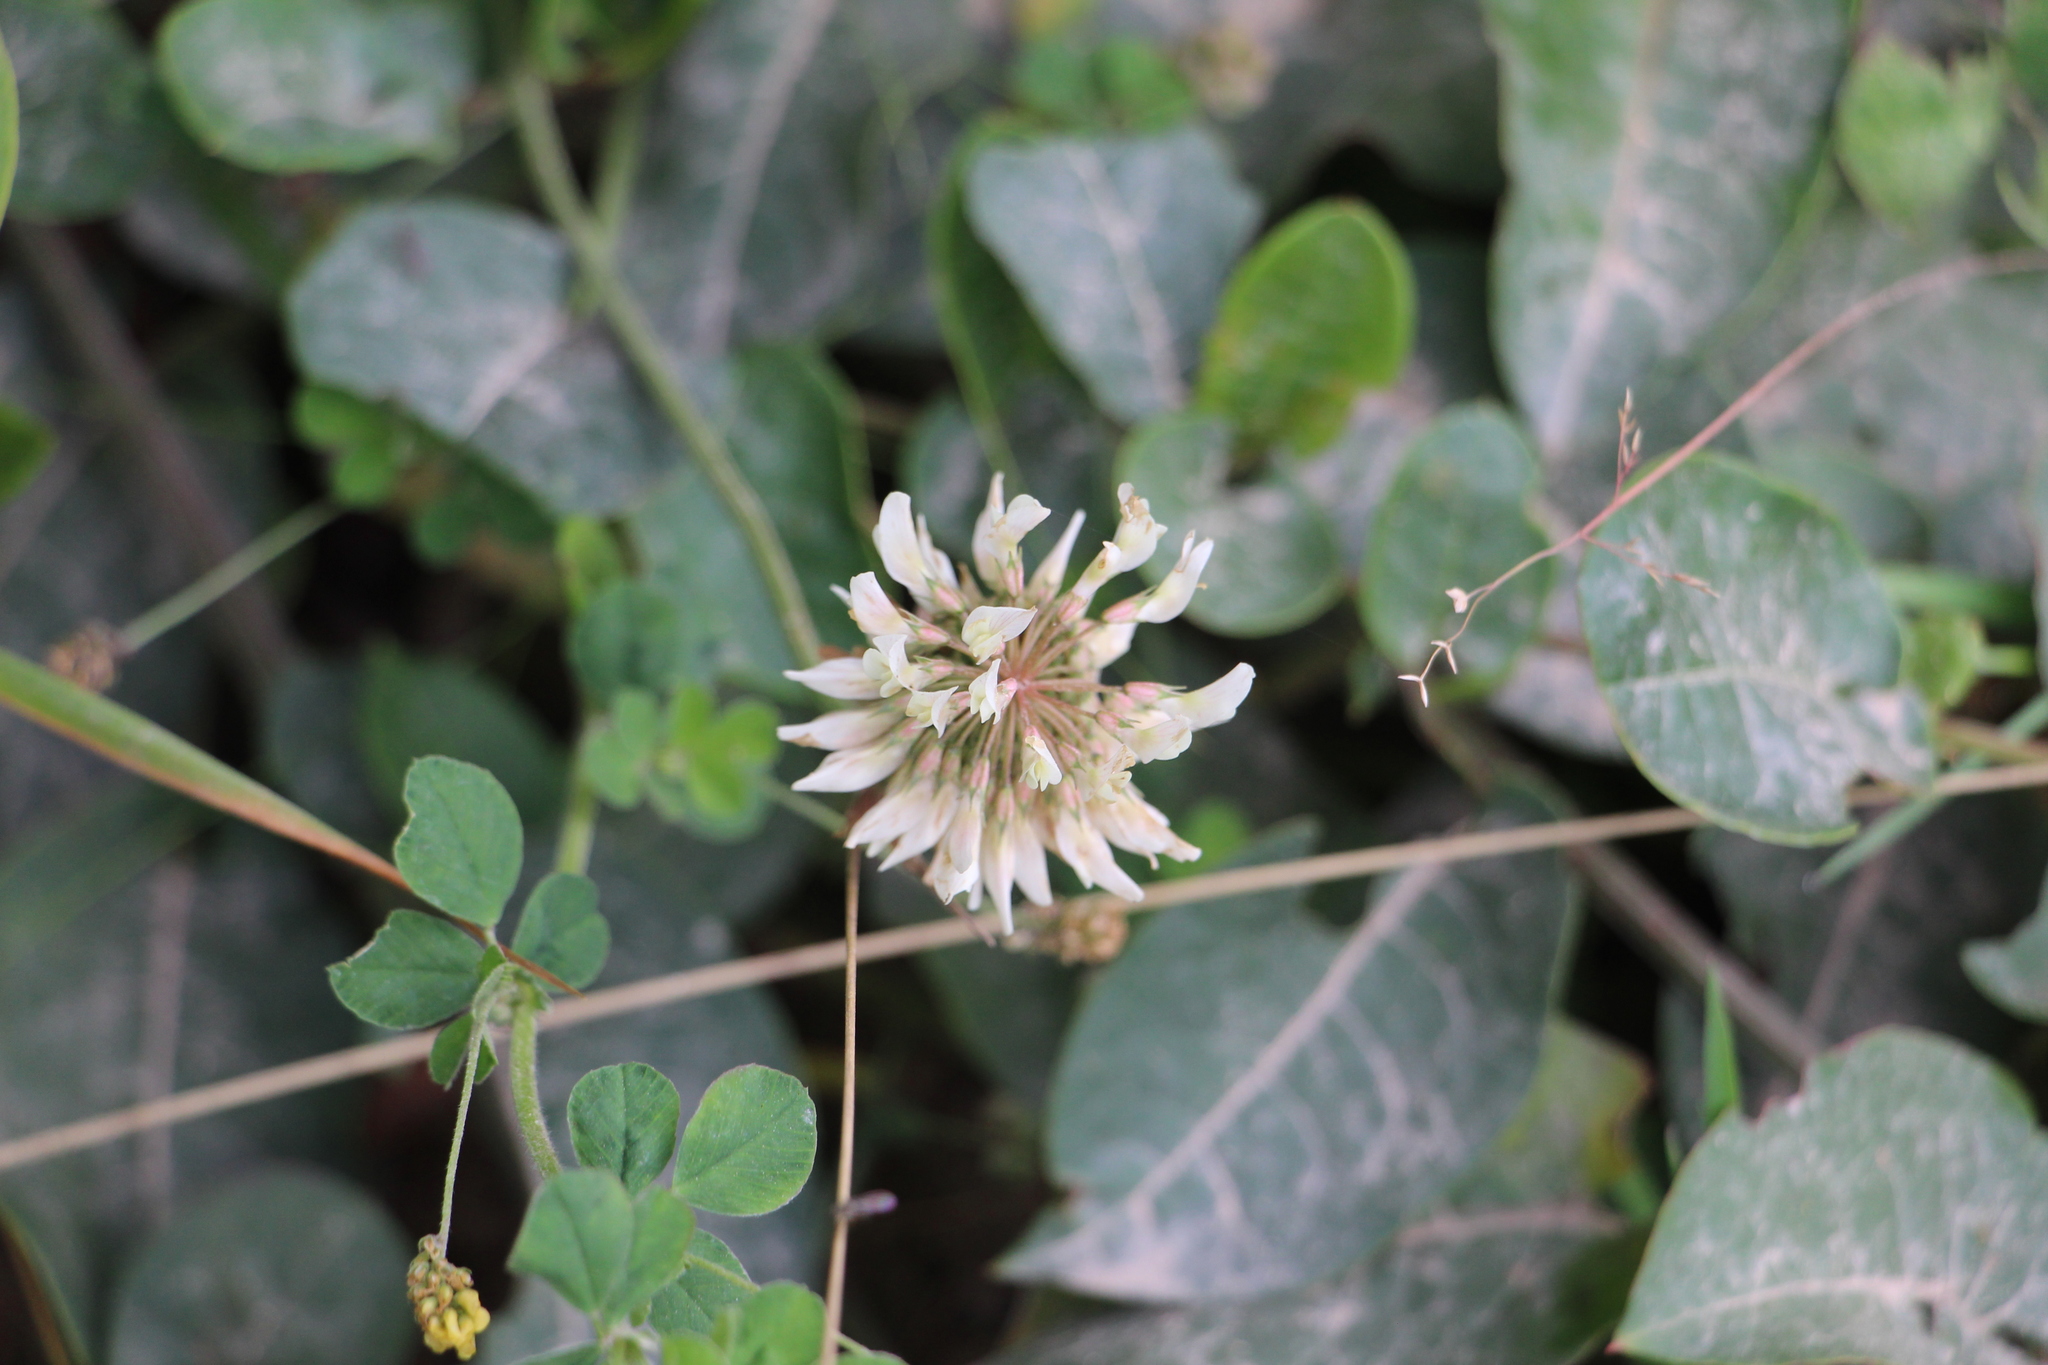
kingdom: Plantae
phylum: Tracheophyta
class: Magnoliopsida
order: Fabales
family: Fabaceae
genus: Trifolium
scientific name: Trifolium repens
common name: White clover
